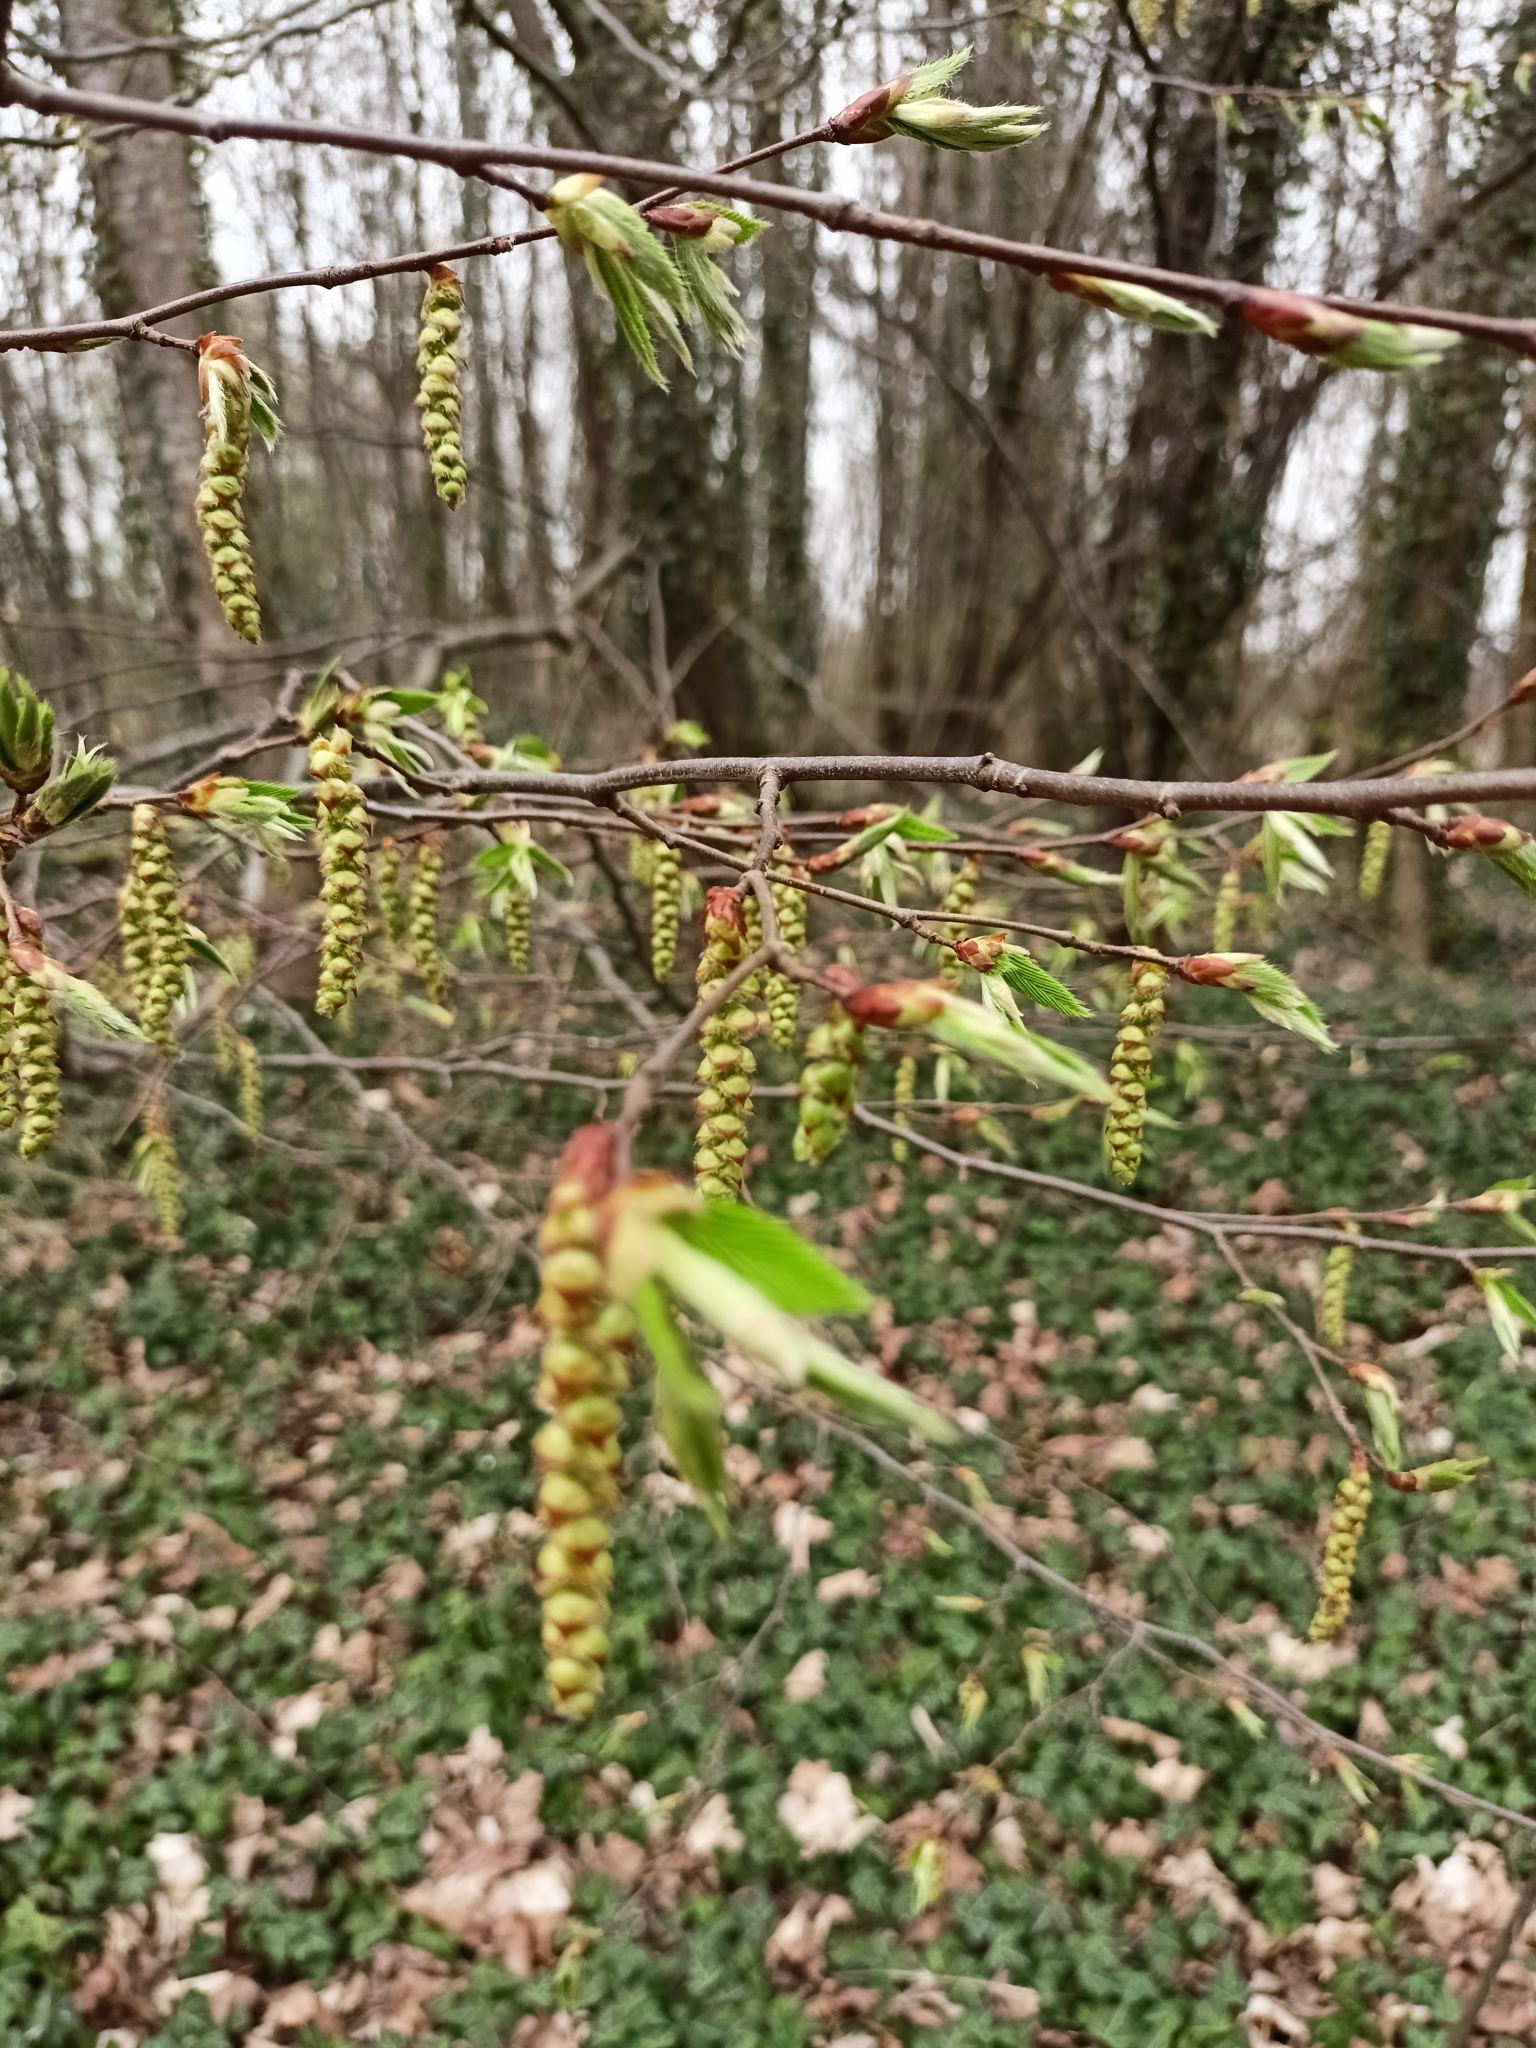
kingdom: Plantae
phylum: Tracheophyta
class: Magnoliopsida
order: Fagales
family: Betulaceae
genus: Corylus
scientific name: Corylus avellana
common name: European hazel
